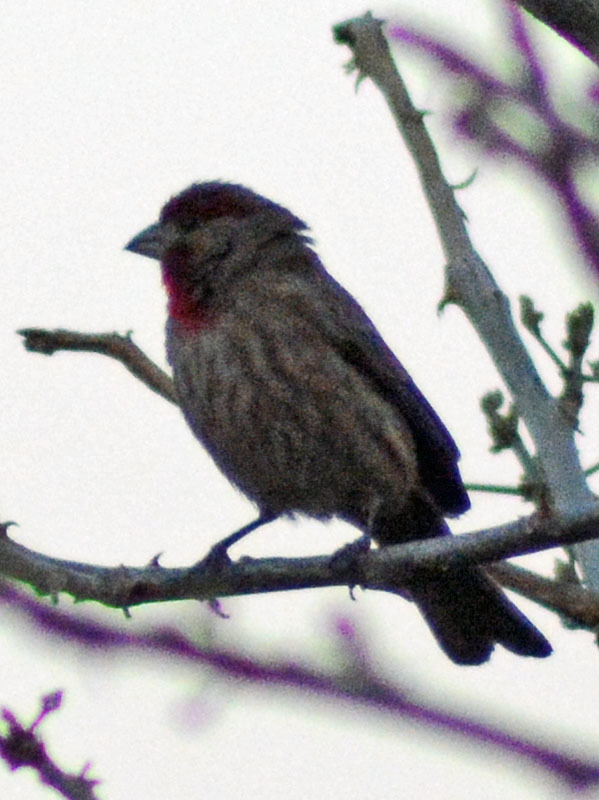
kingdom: Animalia
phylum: Chordata
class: Aves
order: Passeriformes
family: Fringillidae
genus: Haemorhous
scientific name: Haemorhous mexicanus
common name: House finch
